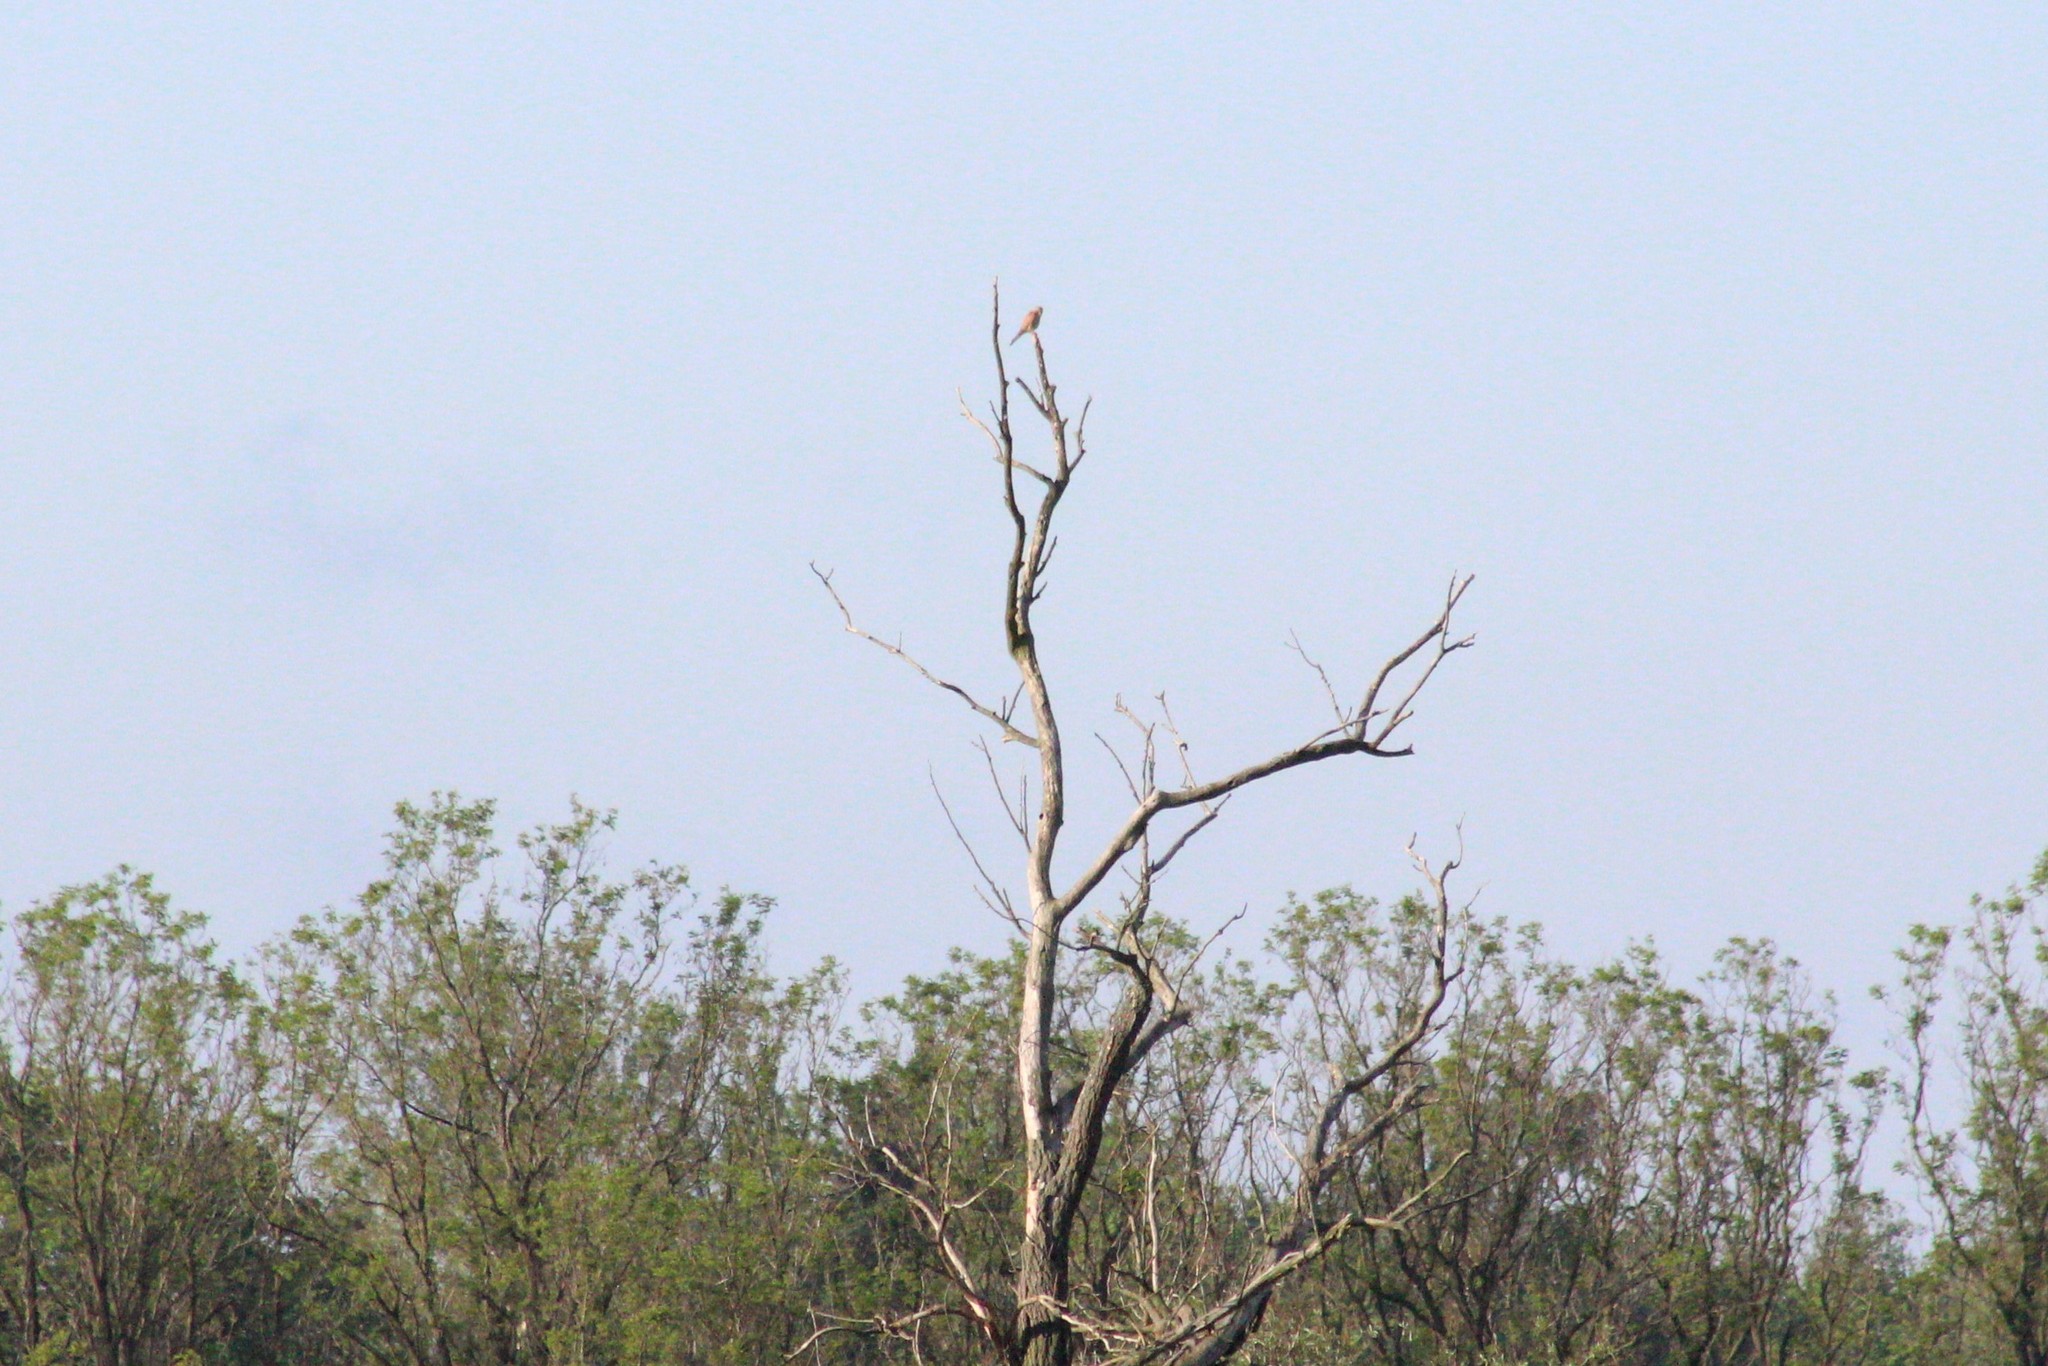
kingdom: Animalia
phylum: Chordata
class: Aves
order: Falconiformes
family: Falconidae
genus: Falco
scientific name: Falco tinnunculus
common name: Common kestrel
